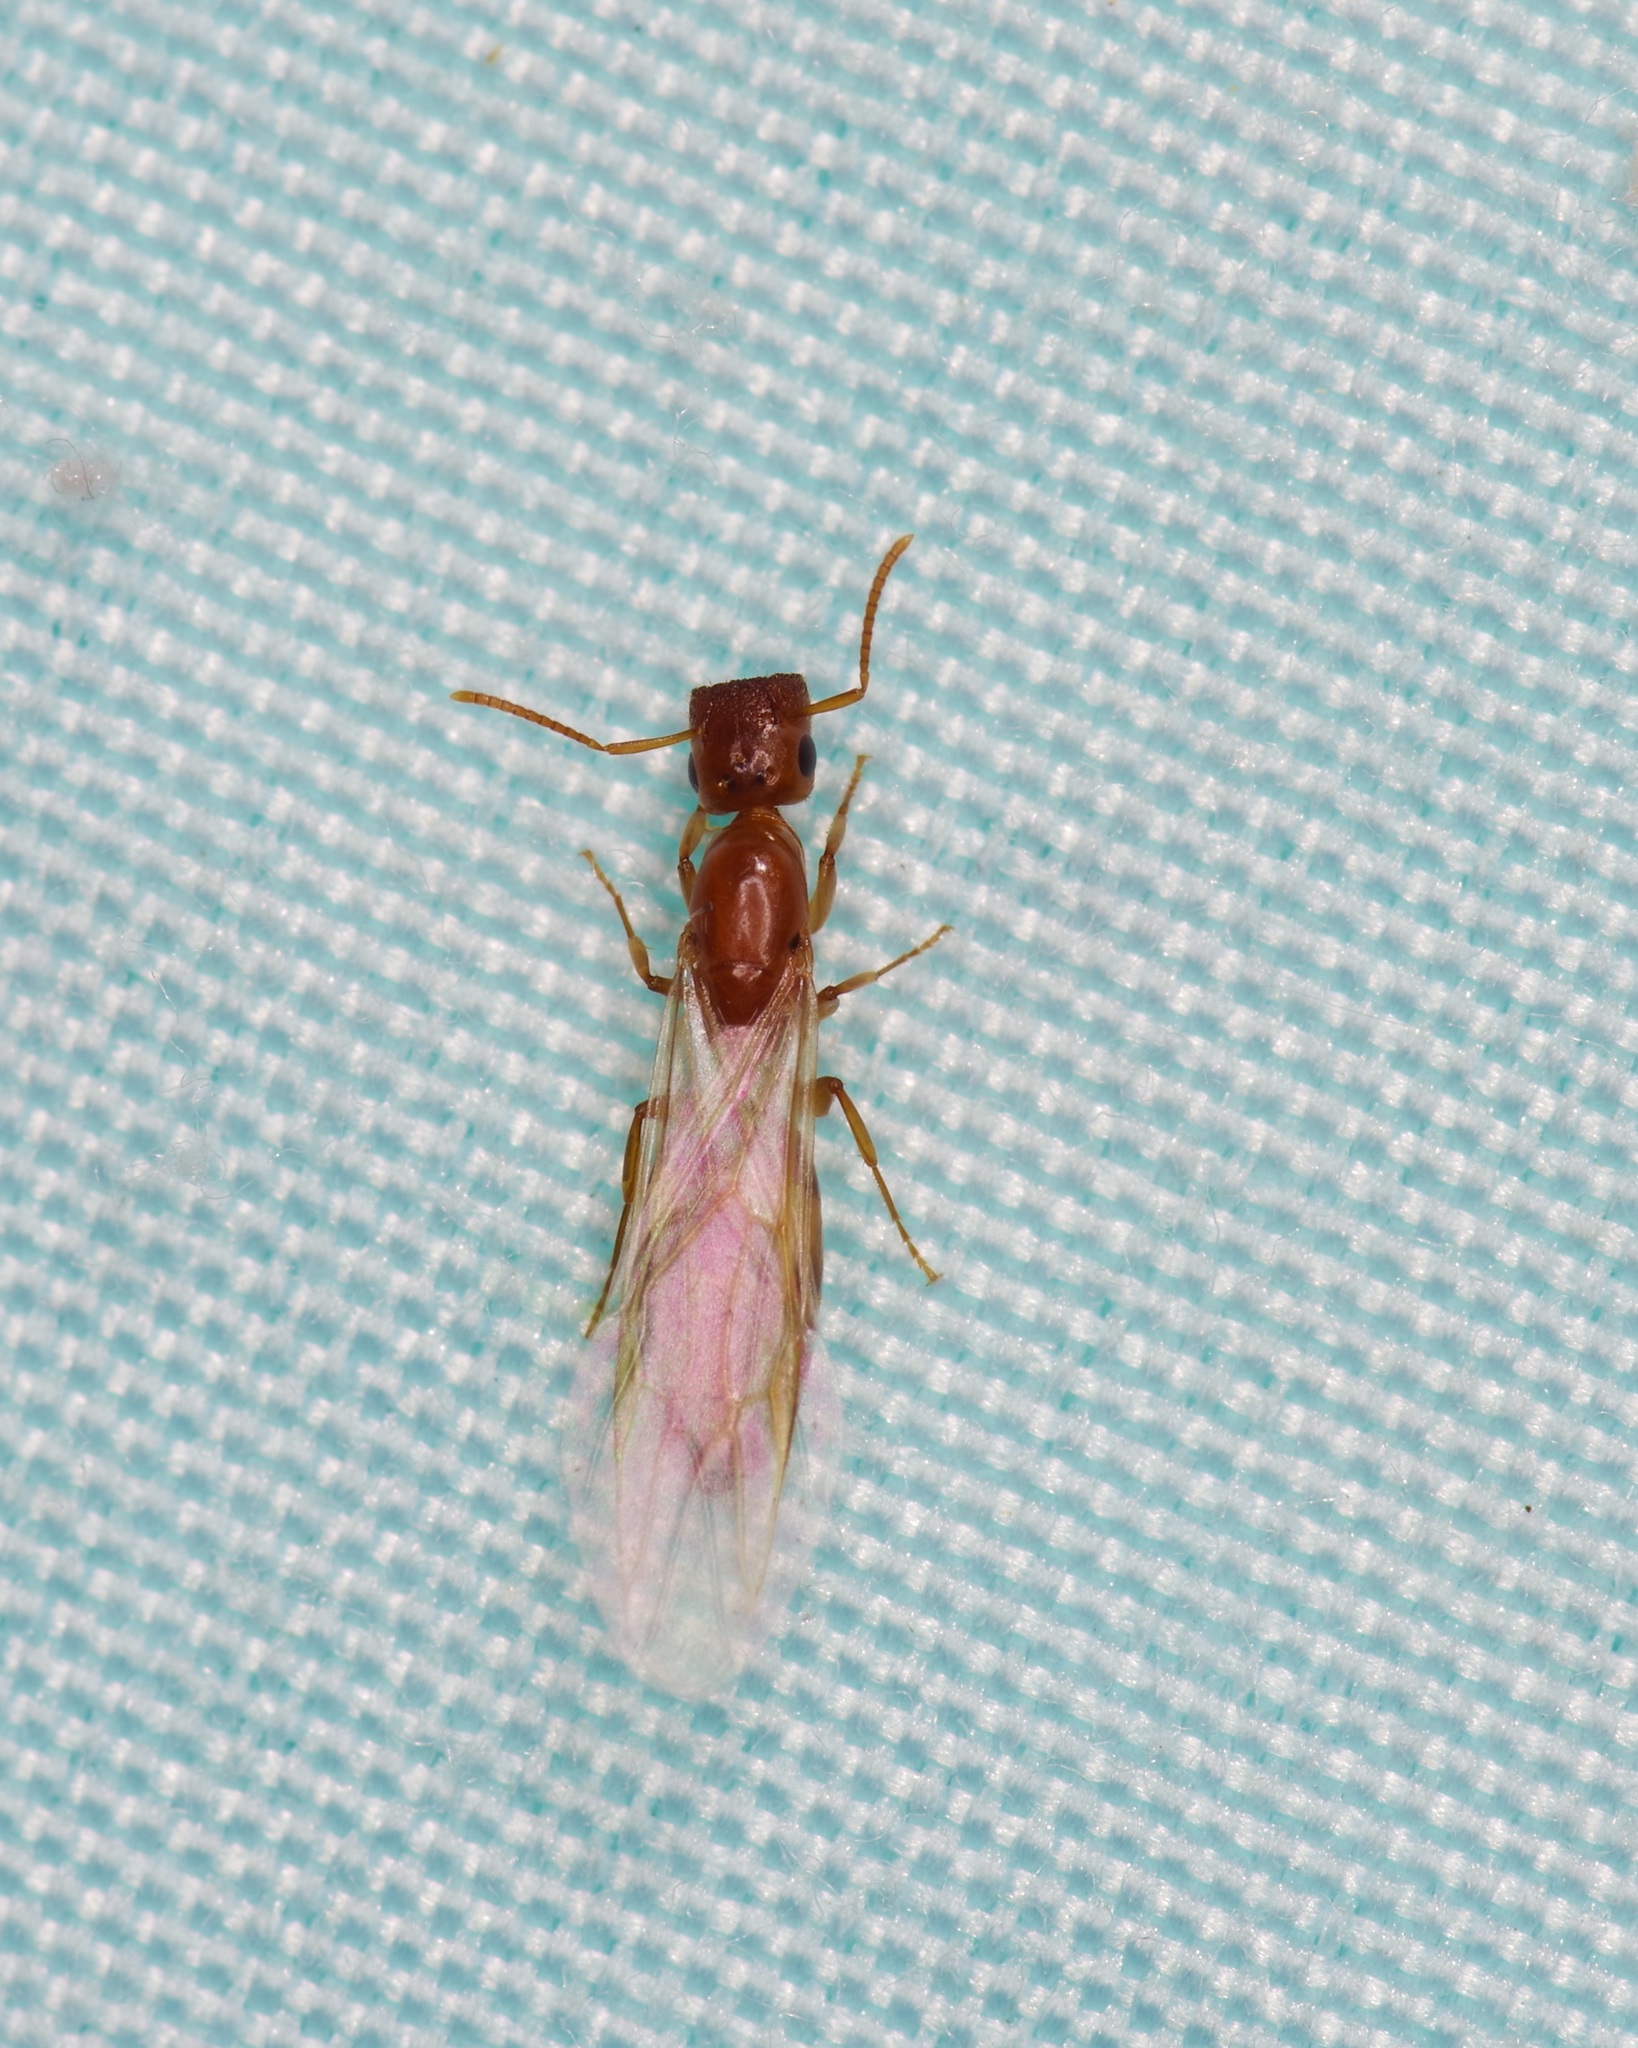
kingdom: Animalia
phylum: Arthropoda
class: Insecta
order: Hymenoptera
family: Formicidae
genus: Colobopsis
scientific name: Colobopsis
